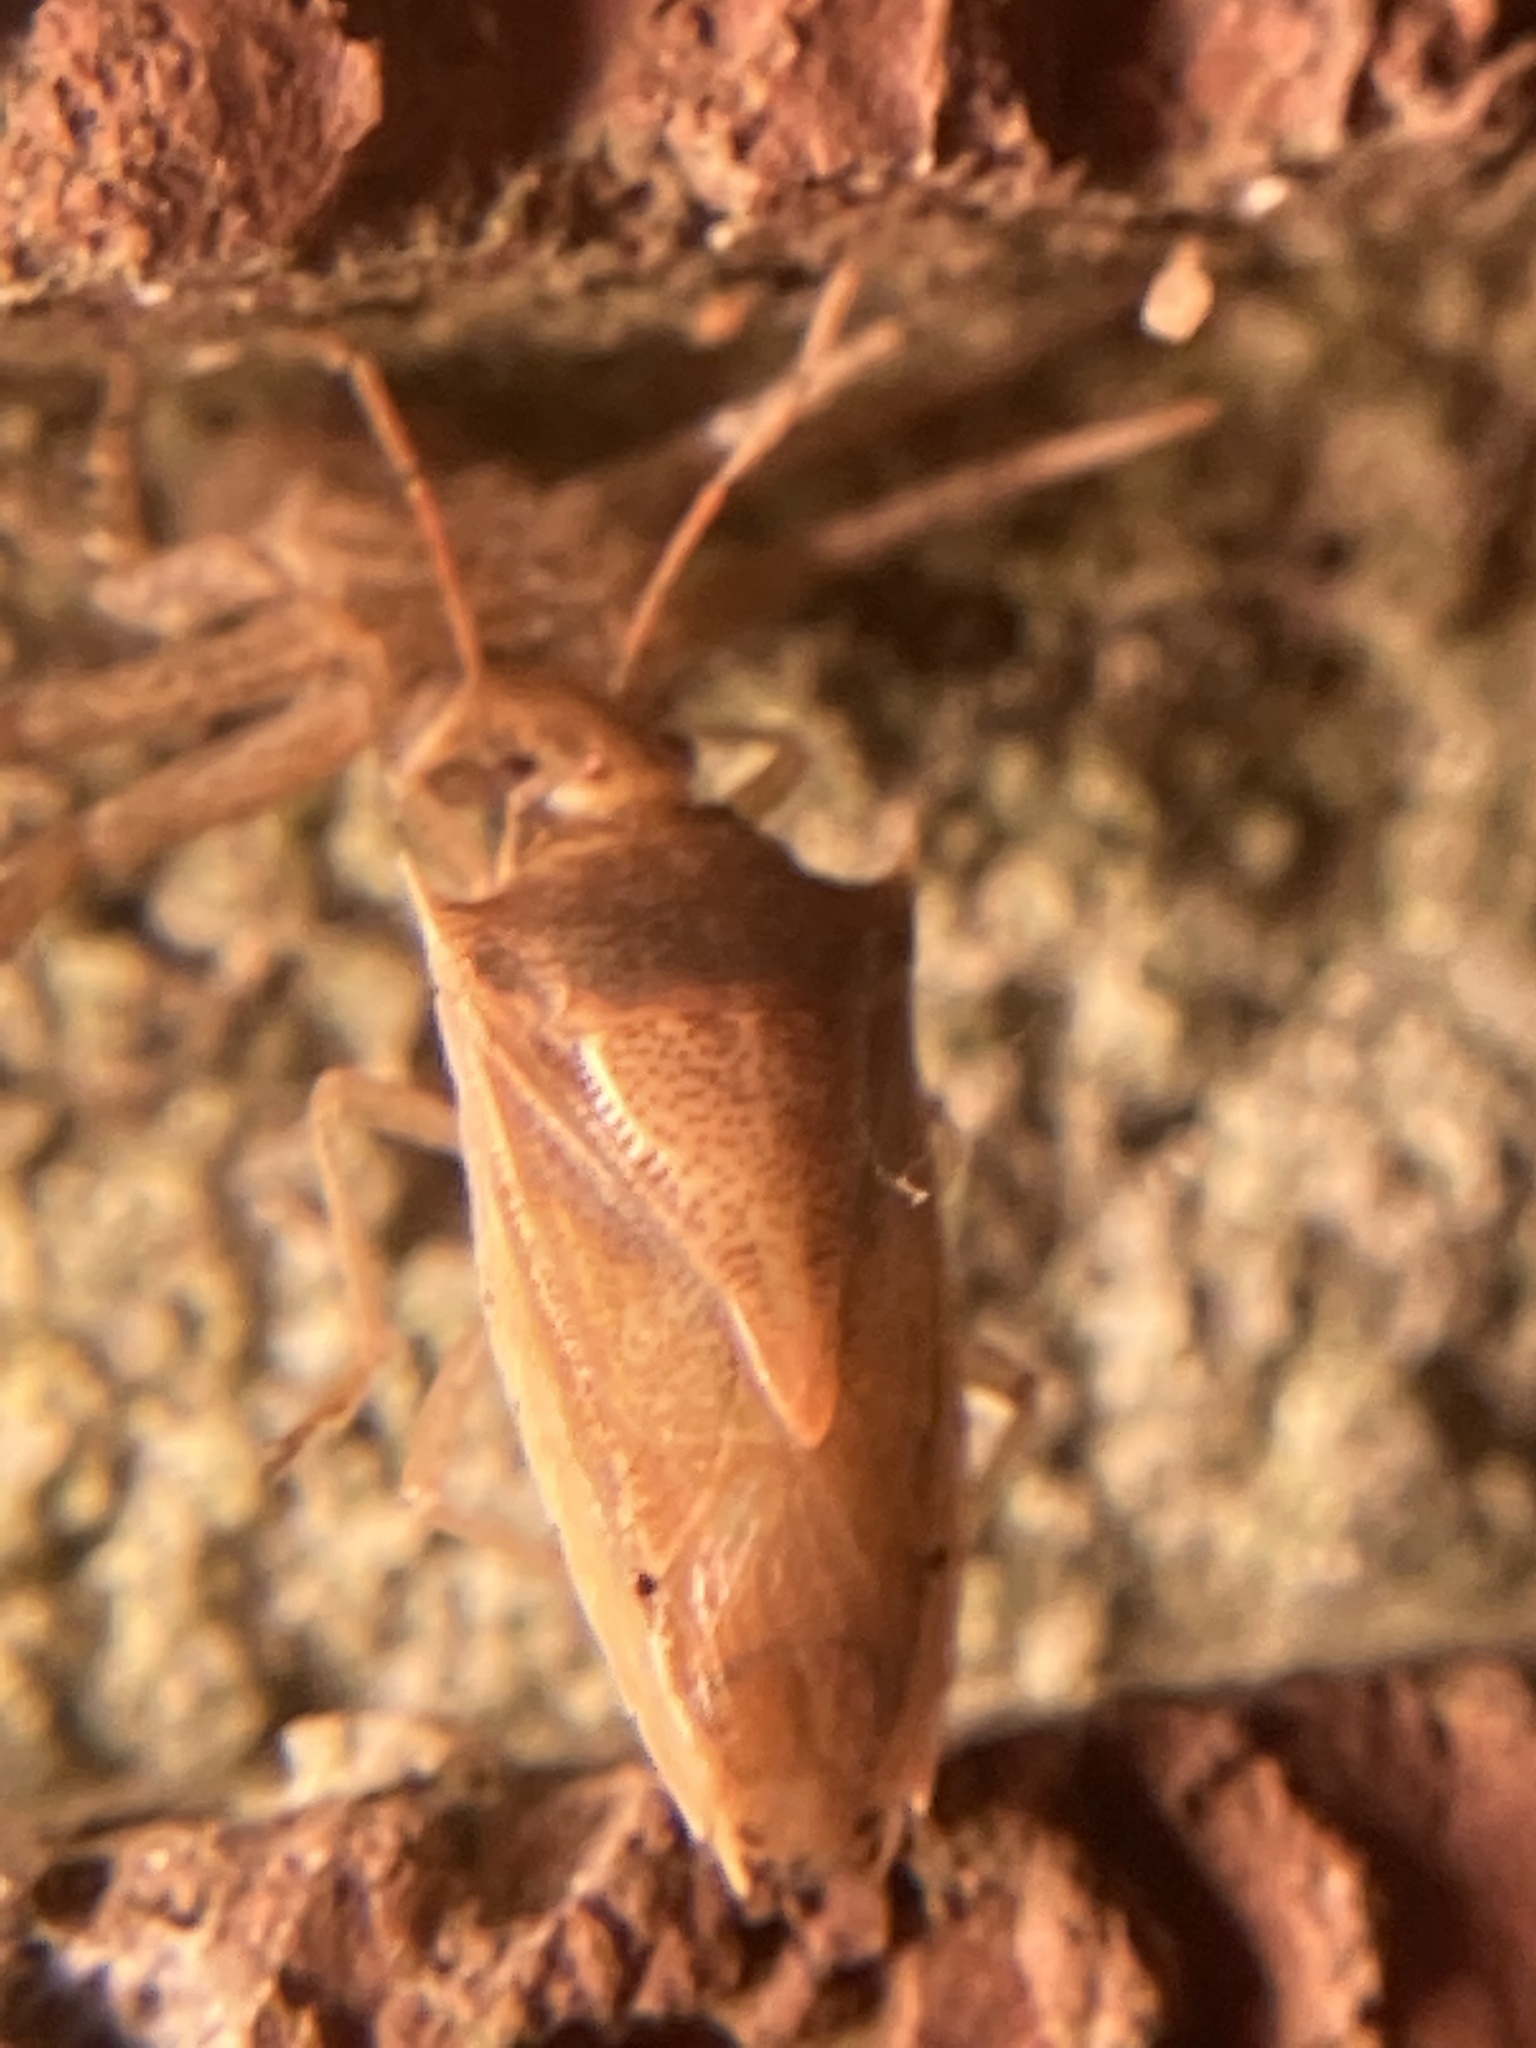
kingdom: Animalia
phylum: Arthropoda
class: Insecta
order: Hemiptera
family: Pentatomidae
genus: Oebalus
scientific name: Oebalus pugnax
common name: Rice stink bug
